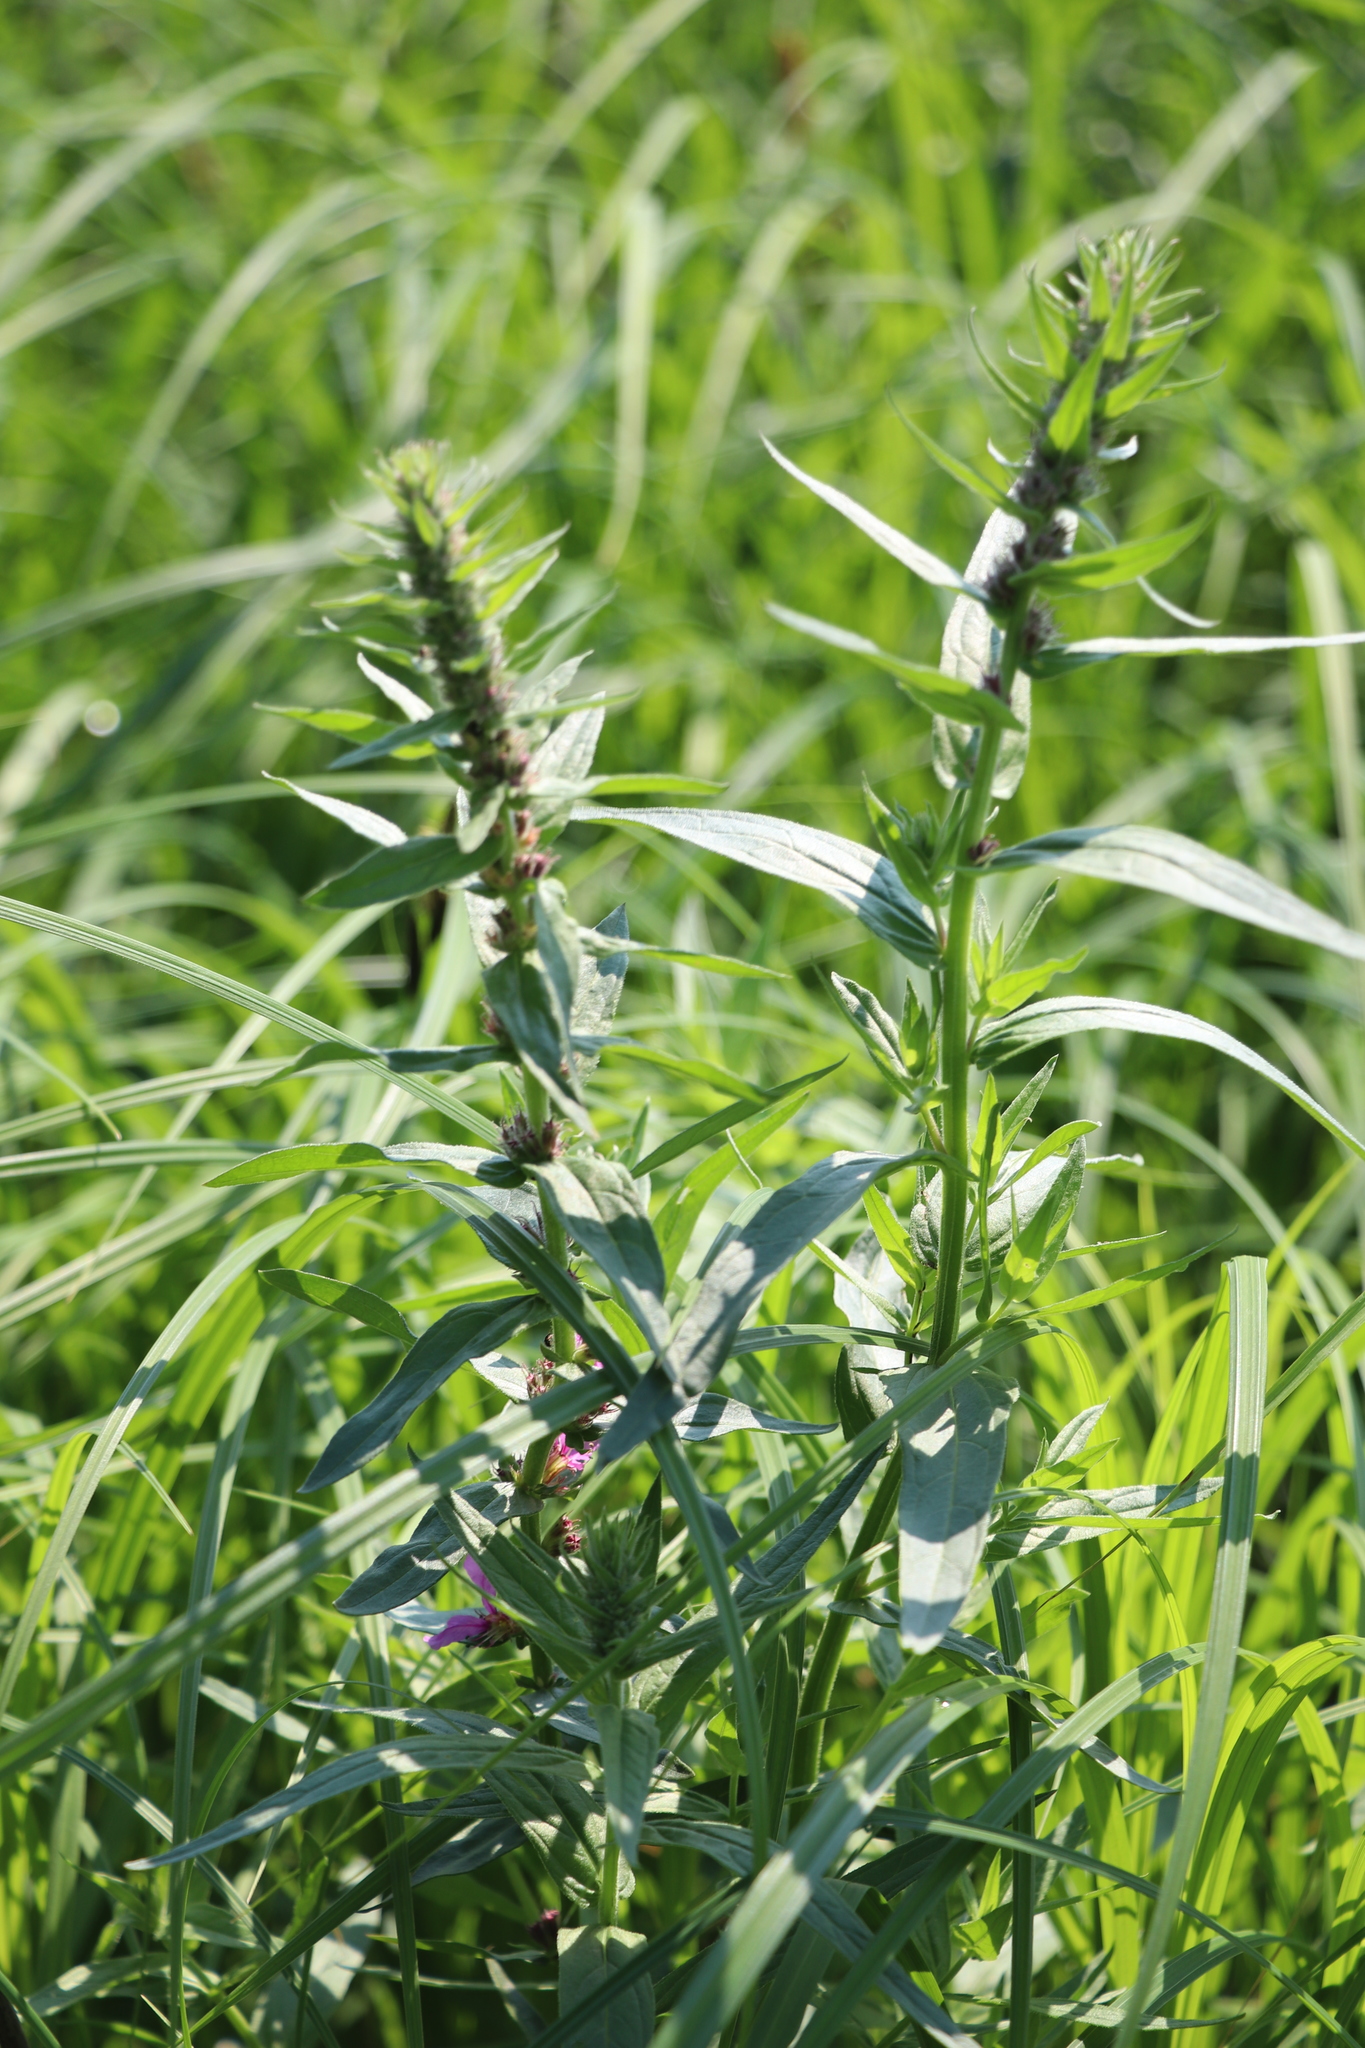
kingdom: Plantae
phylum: Tracheophyta
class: Magnoliopsida
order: Myrtales
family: Lythraceae
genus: Lythrum
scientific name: Lythrum salicaria
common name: Purple loosestrife
